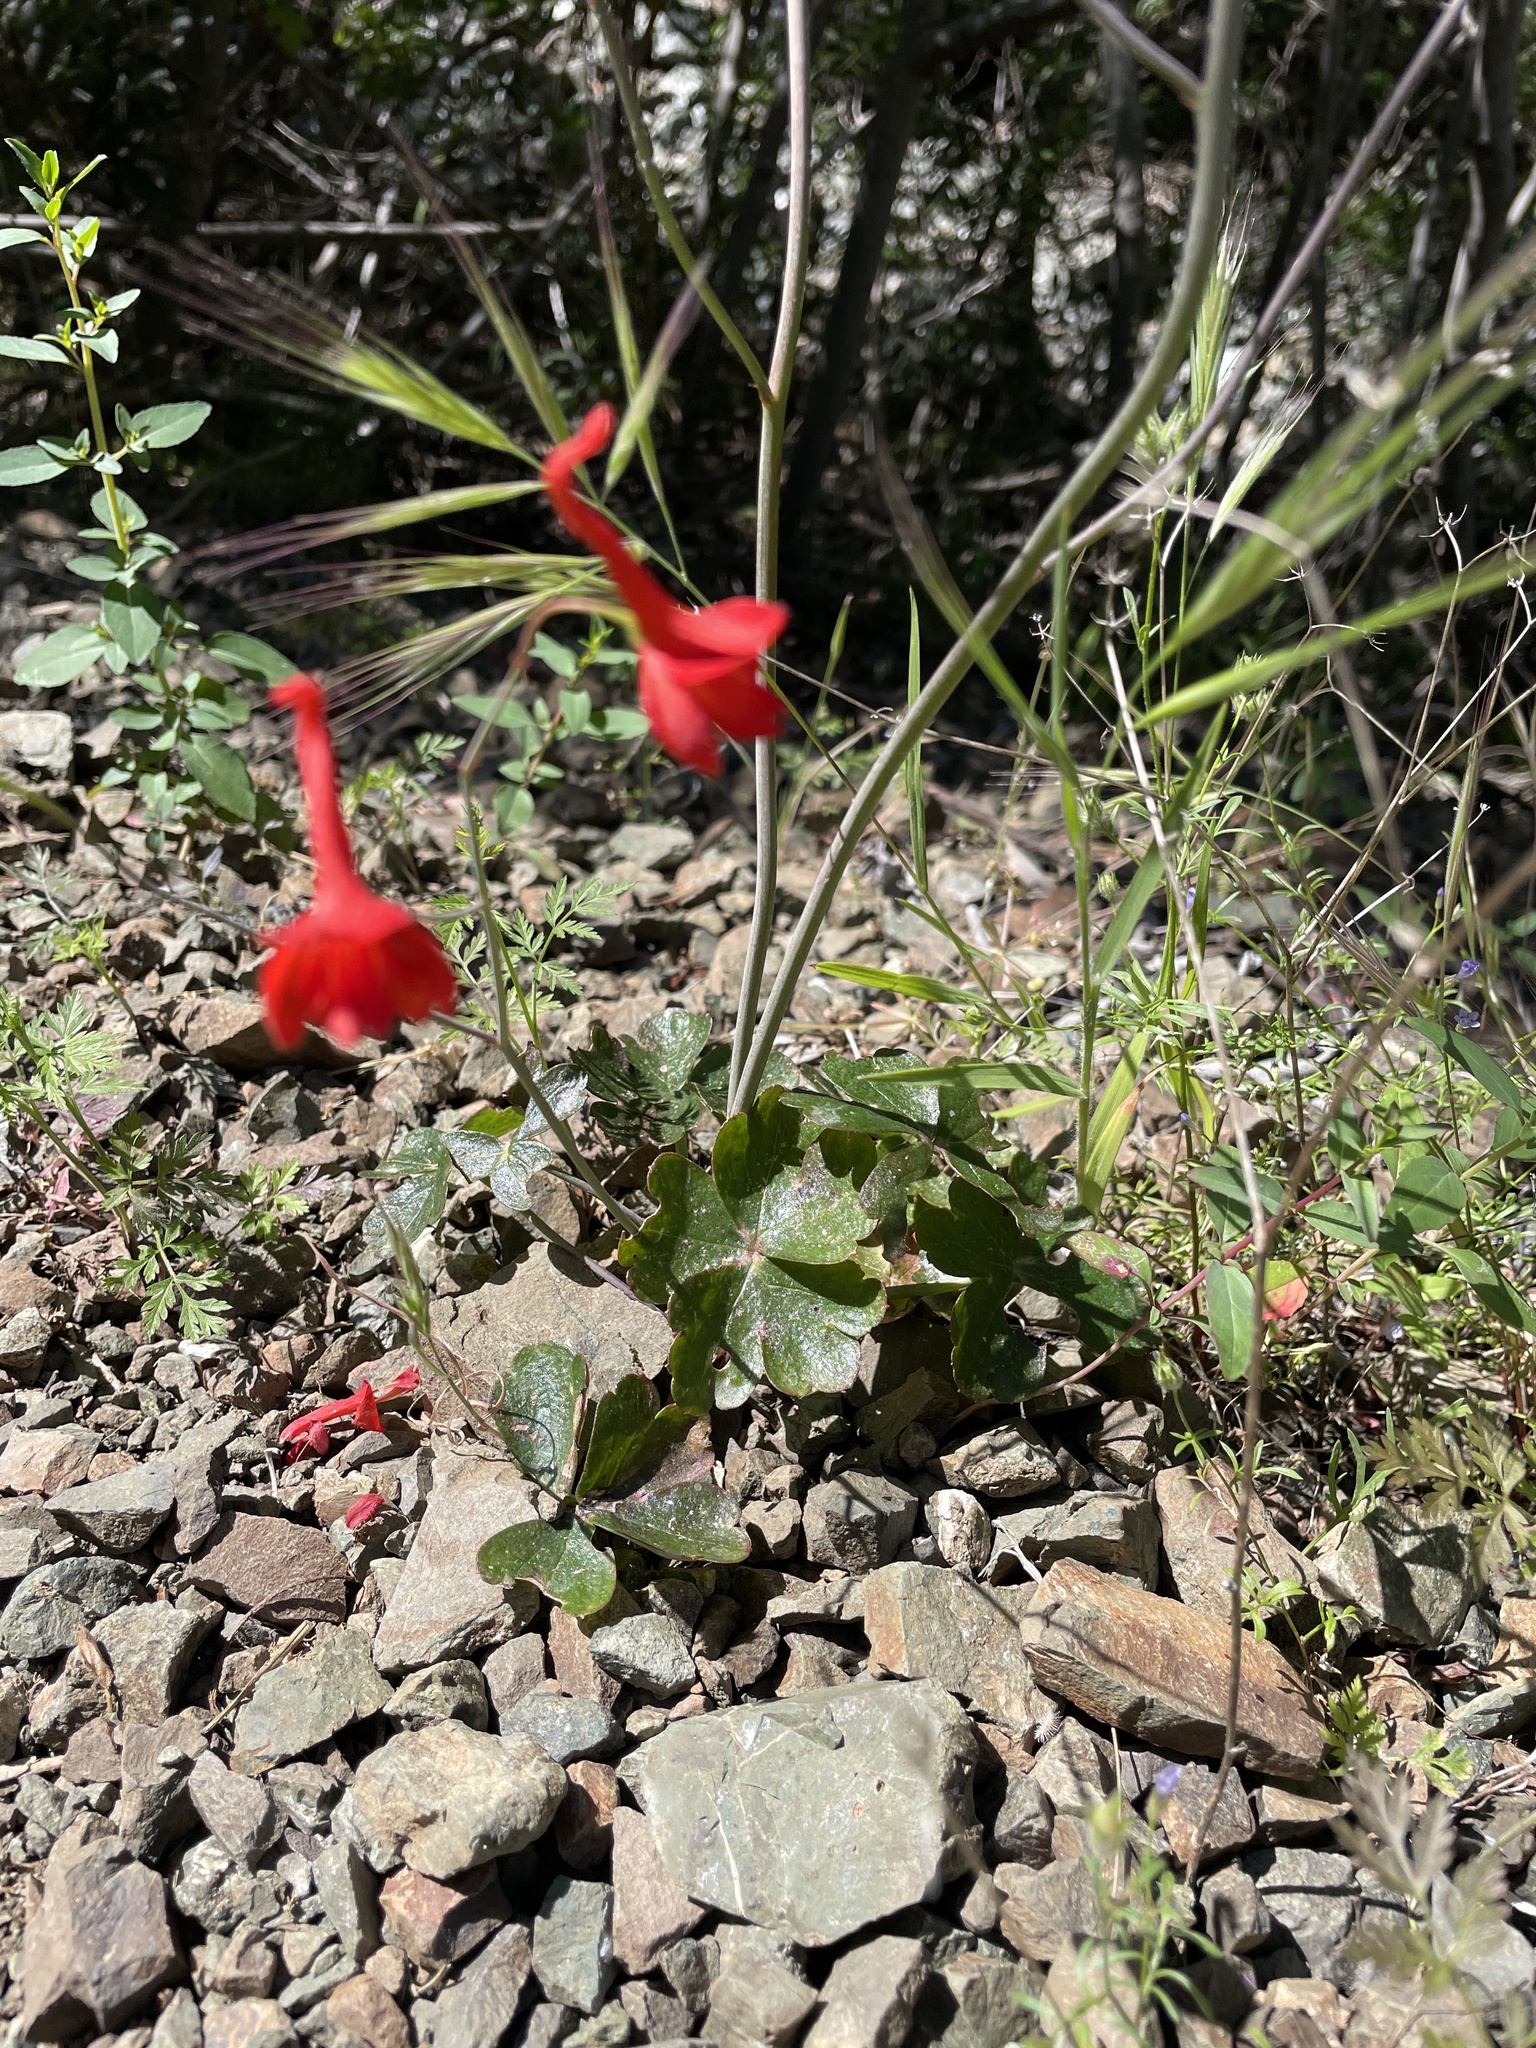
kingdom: Plantae
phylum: Tracheophyta
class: Magnoliopsida
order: Ranunculales
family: Ranunculaceae
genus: Delphinium
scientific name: Delphinium nudicaule
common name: Red larkspur
